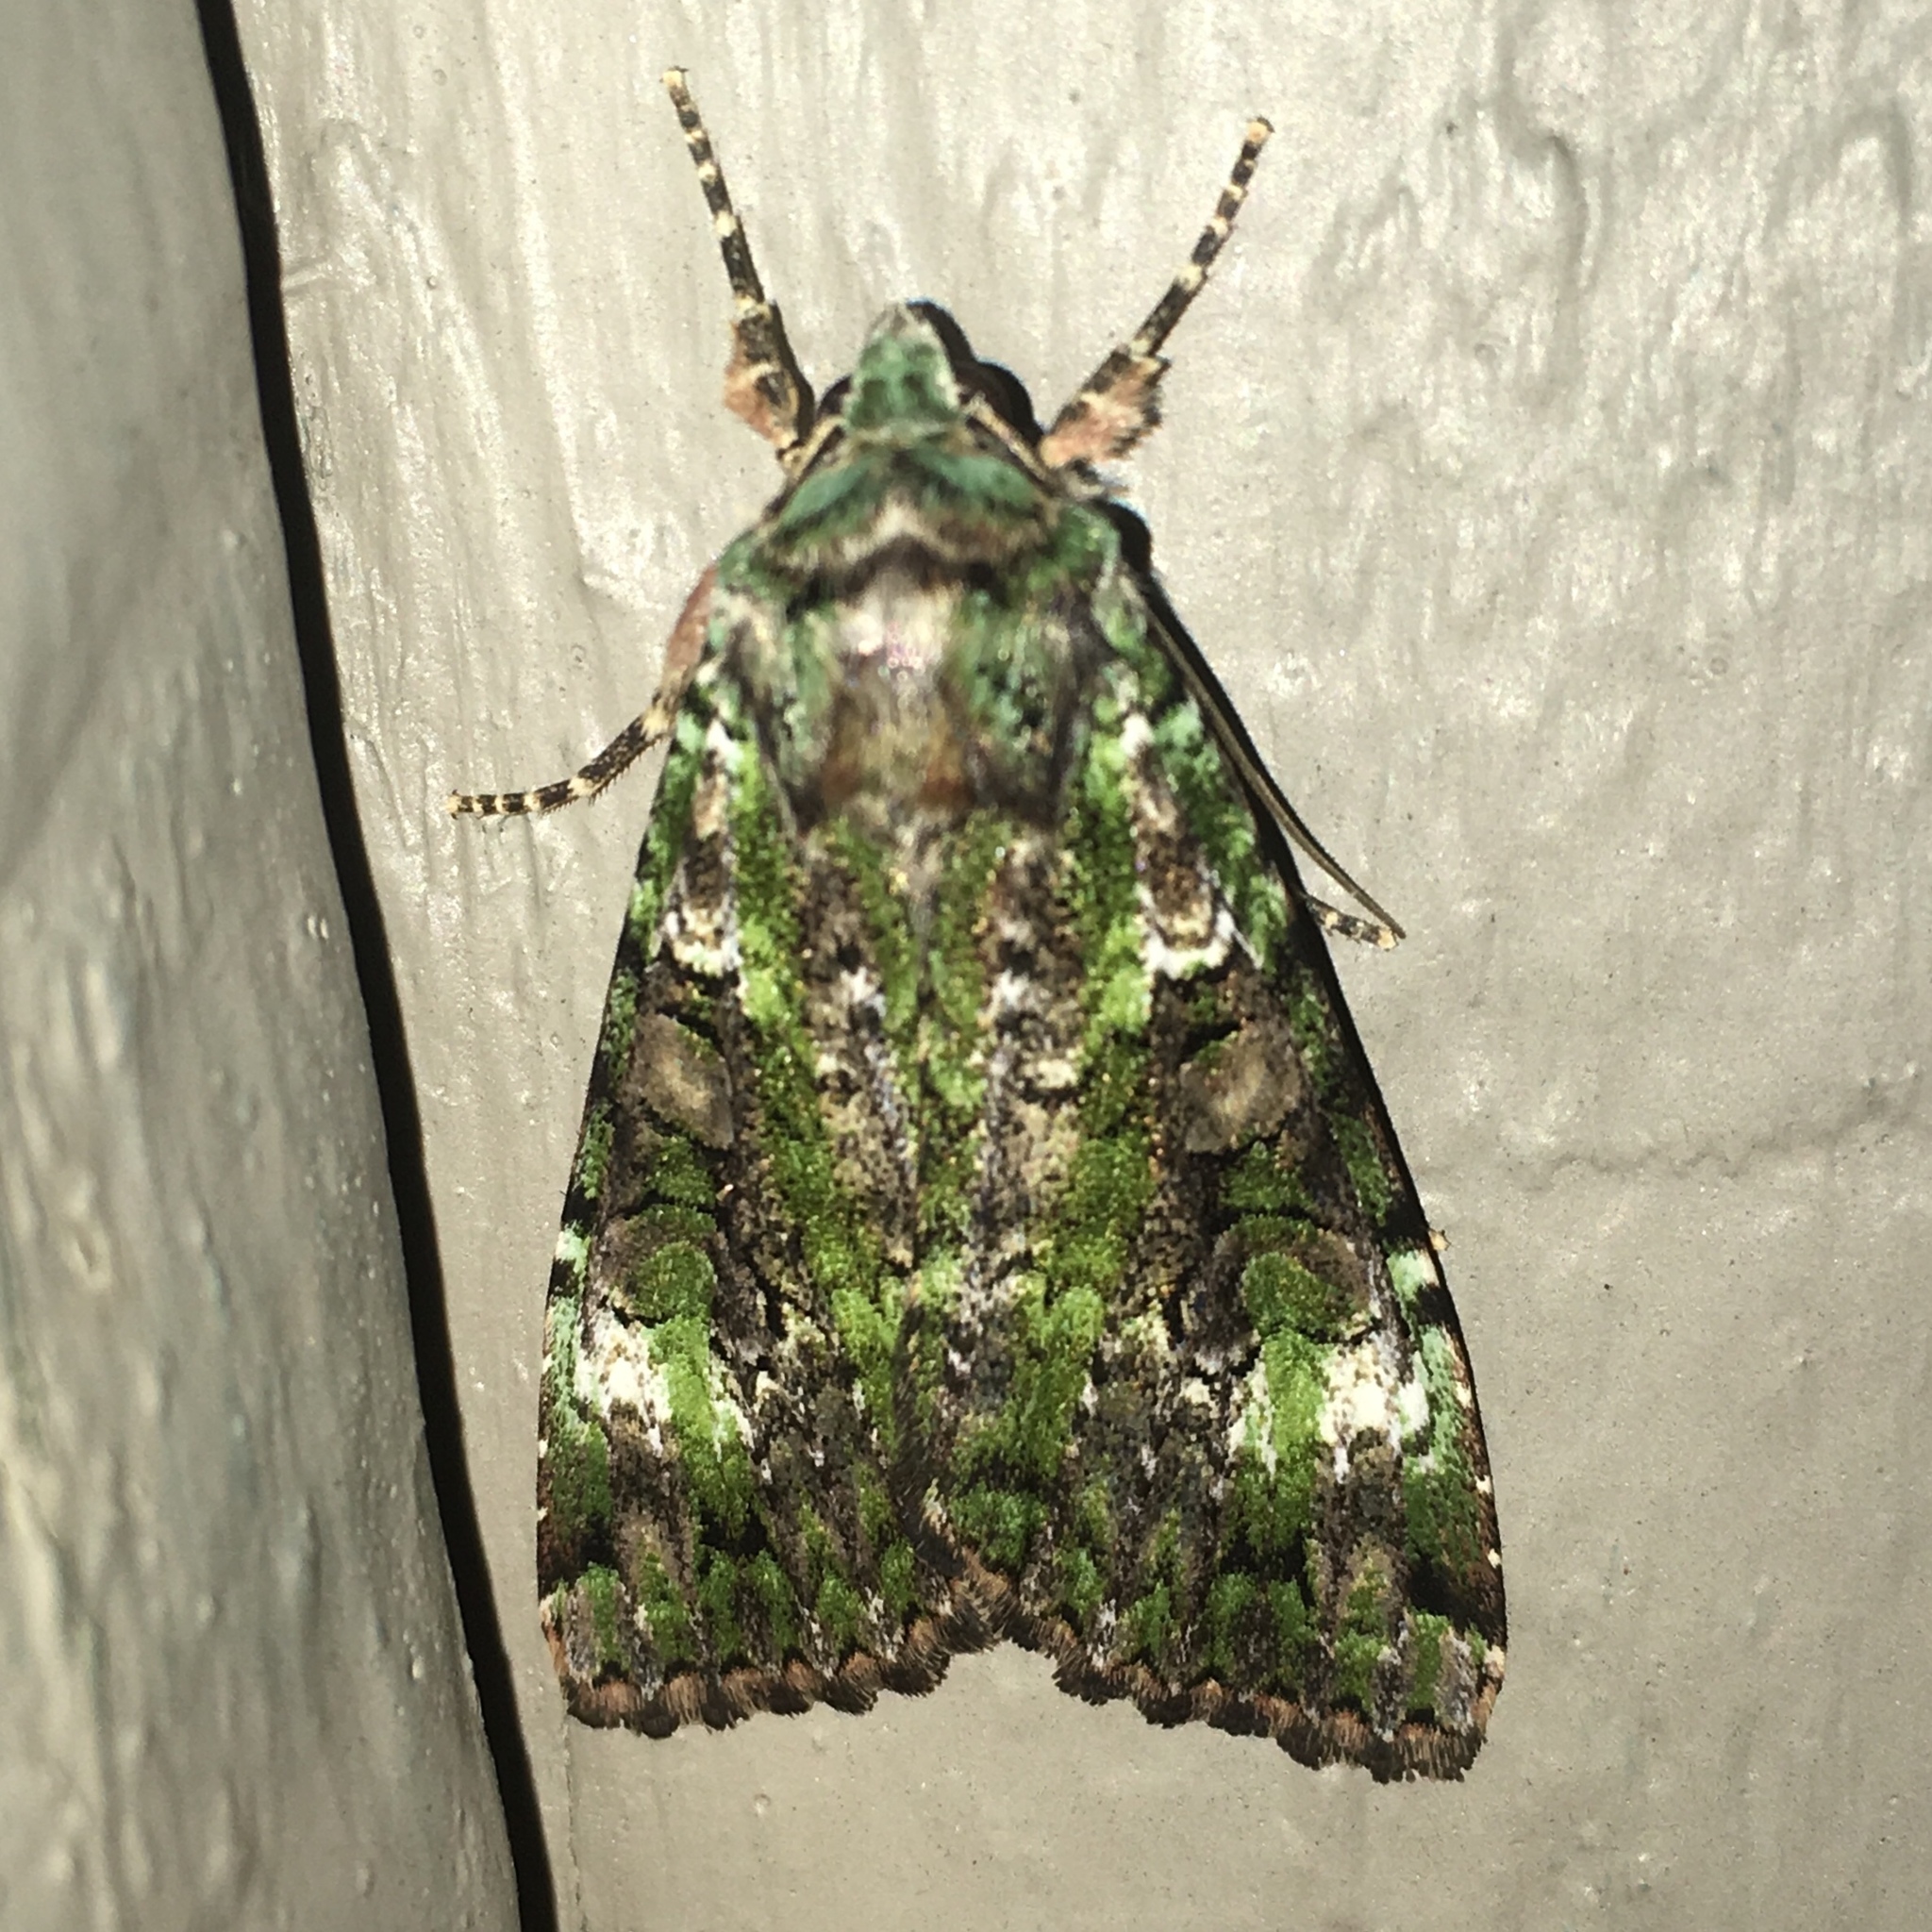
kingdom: Animalia
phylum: Arthropoda
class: Insecta
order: Lepidoptera
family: Noctuidae
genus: Anaplectoides
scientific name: Anaplectoides prasina
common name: Green arches
